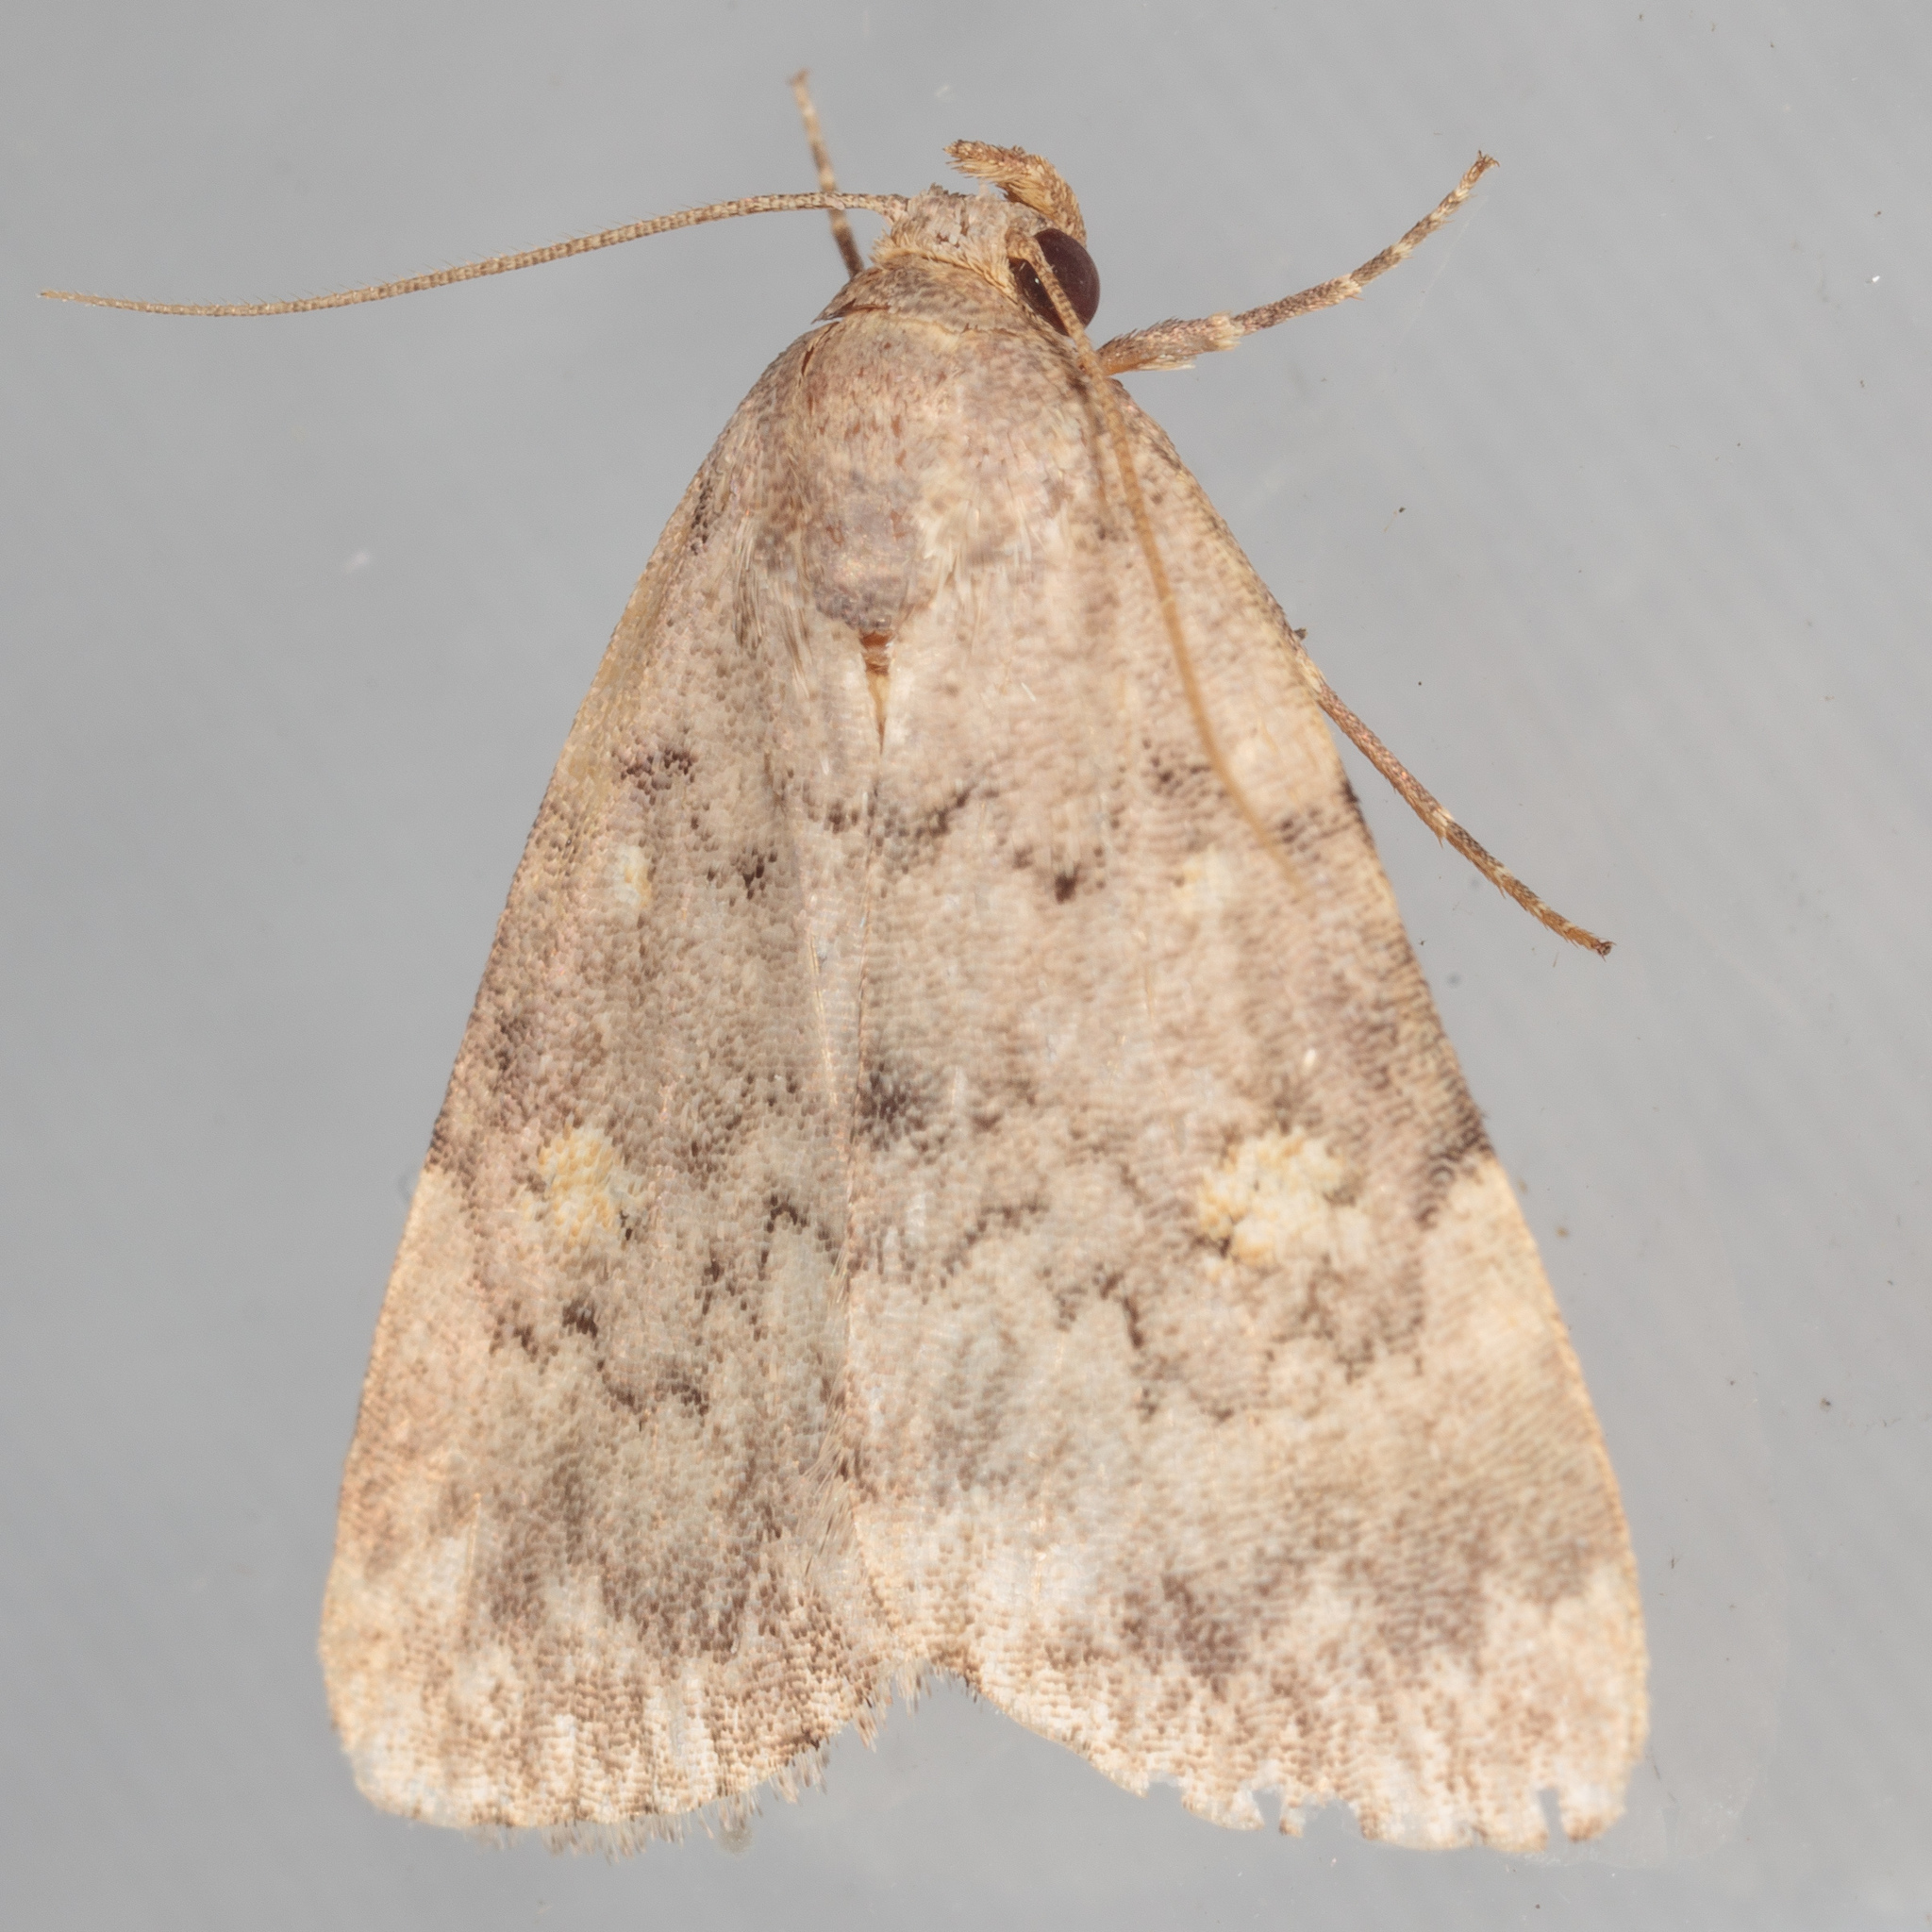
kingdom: Animalia
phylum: Arthropoda
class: Insecta
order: Lepidoptera
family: Erebidae
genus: Idia
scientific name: Idia aemula
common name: Common idia moth
